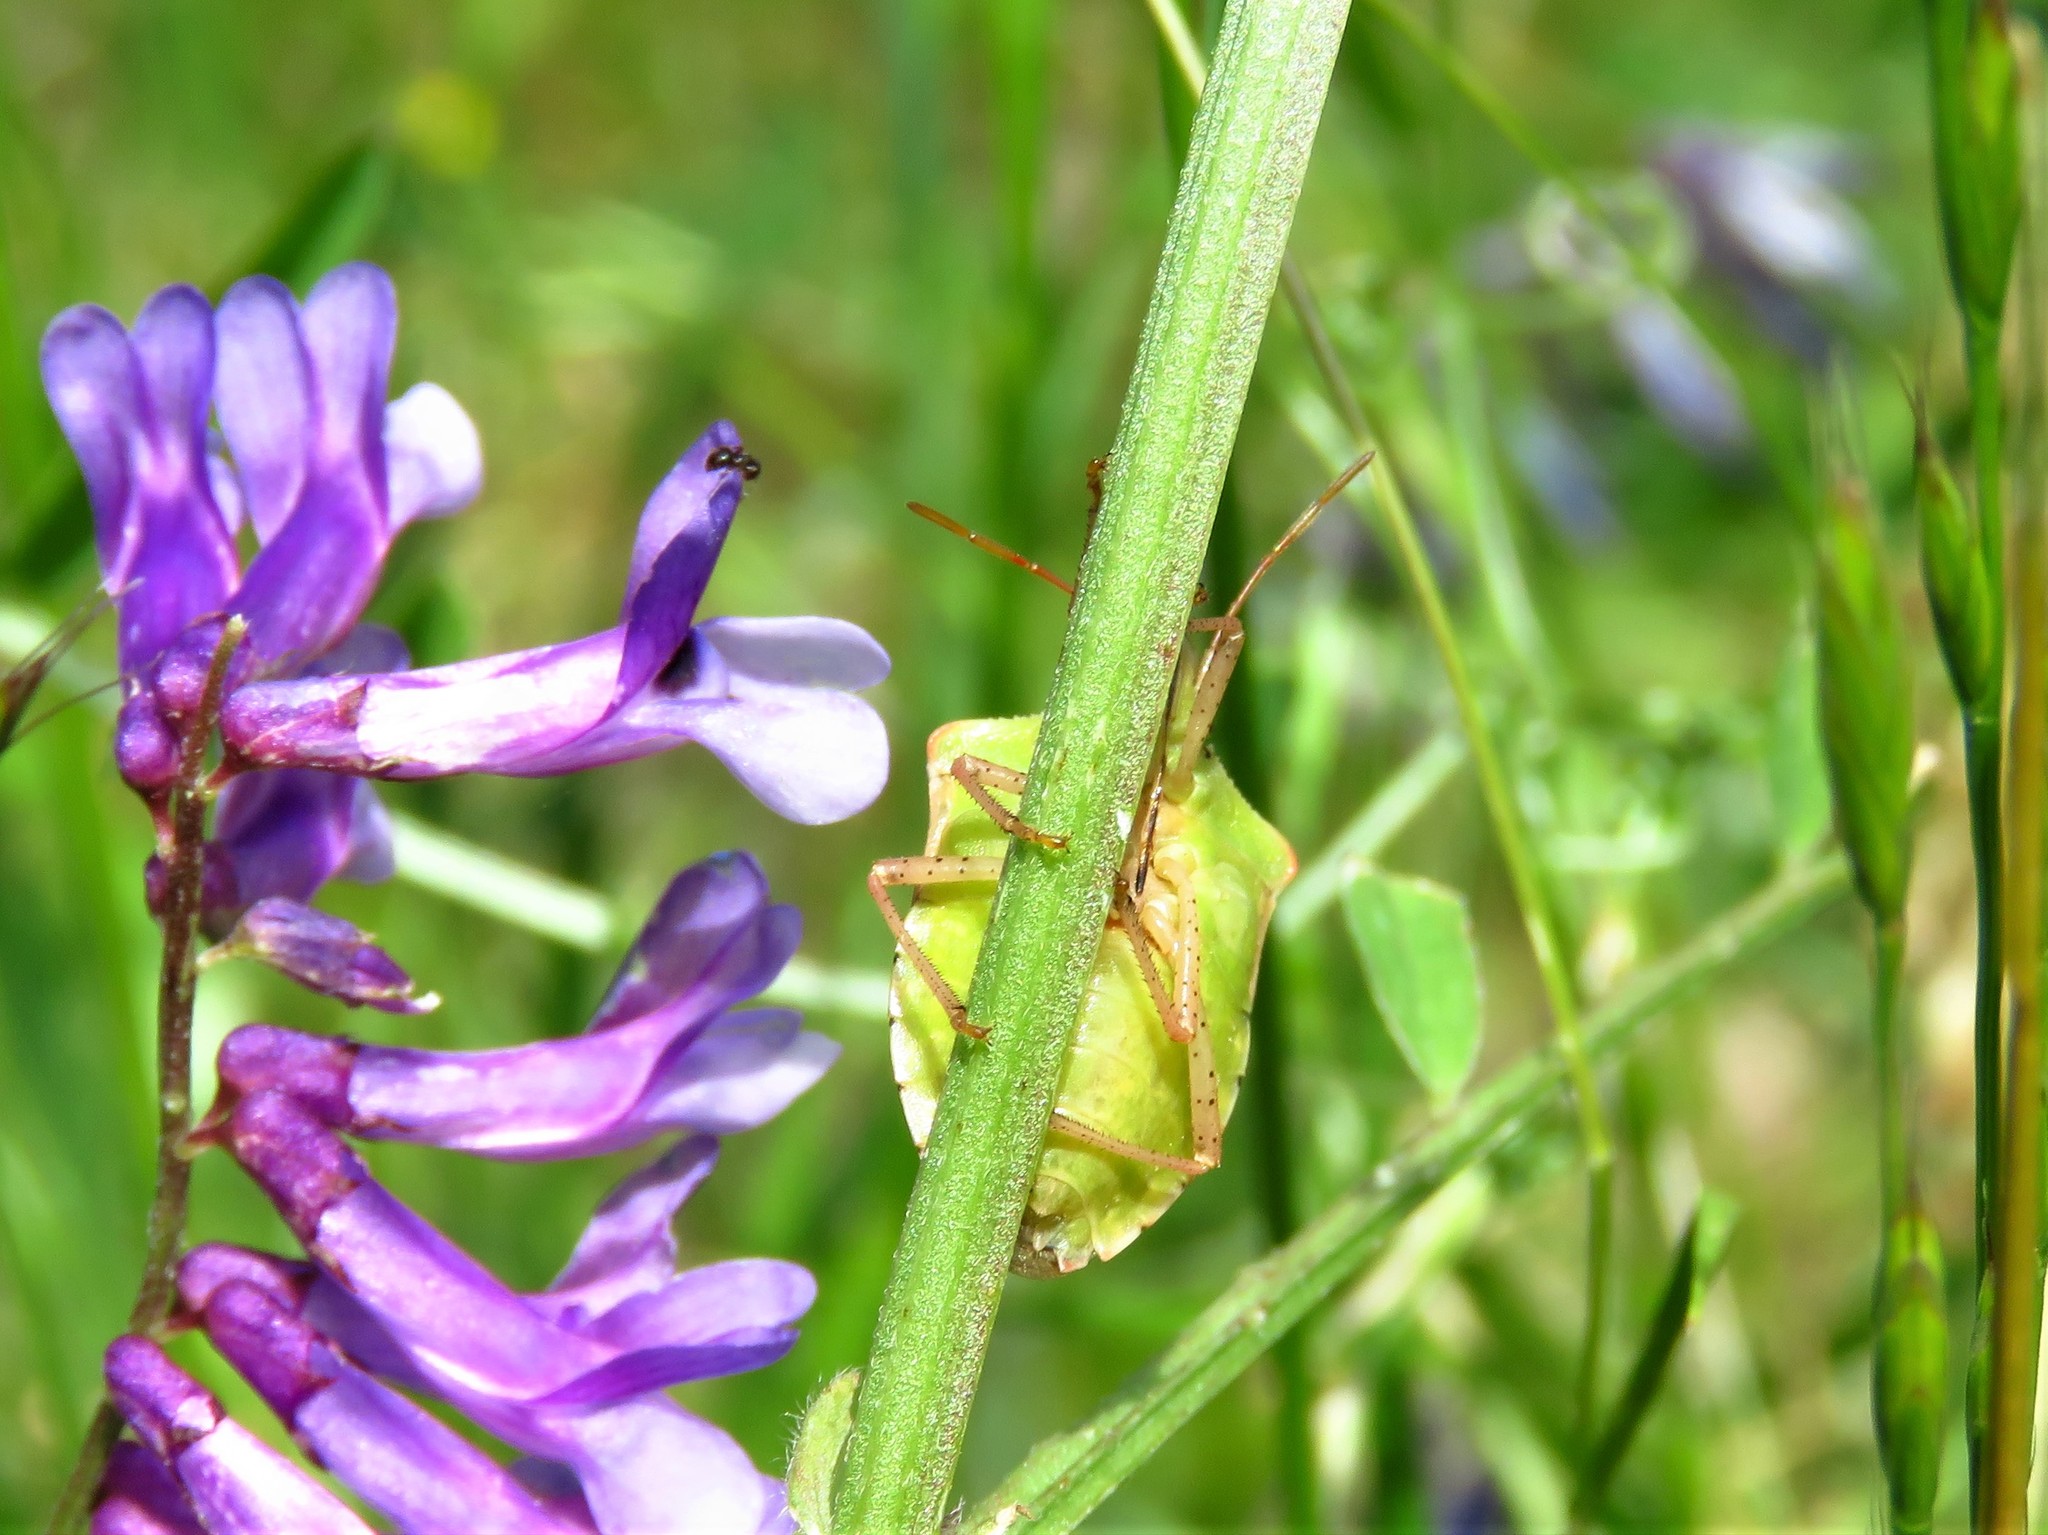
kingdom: Animalia
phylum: Arthropoda
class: Insecta
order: Hemiptera
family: Pentatomidae
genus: Euschistus
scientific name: Euschistus servus
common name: Brown stink bug
